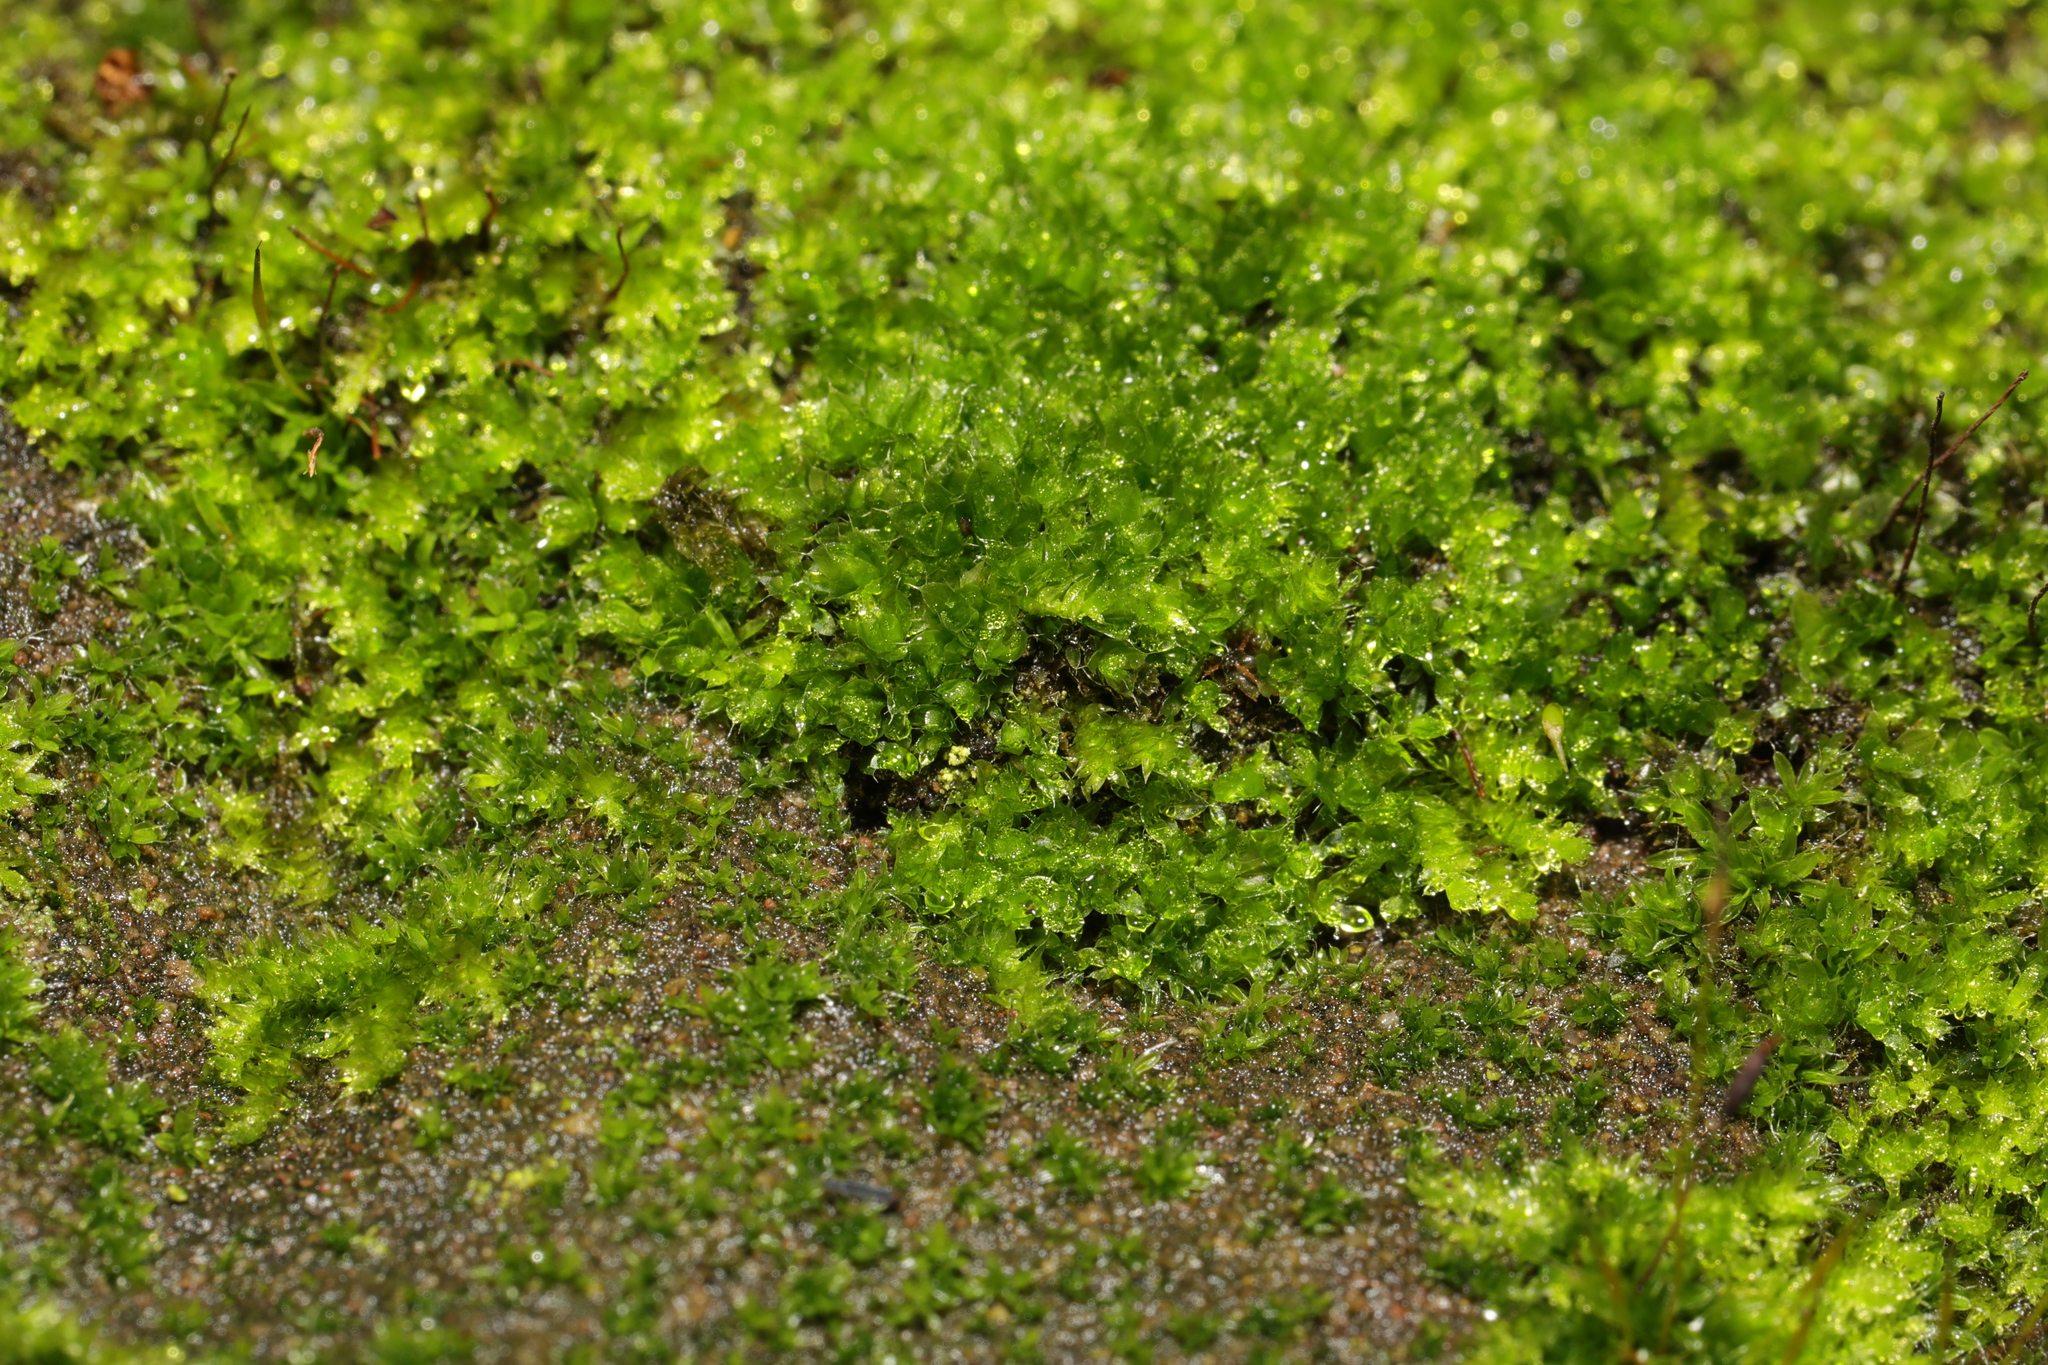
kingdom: Plantae
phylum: Bryophyta
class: Bryopsida
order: Pottiales
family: Pottiaceae
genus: Tortula
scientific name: Tortula muralis
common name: Wall screw-moss
